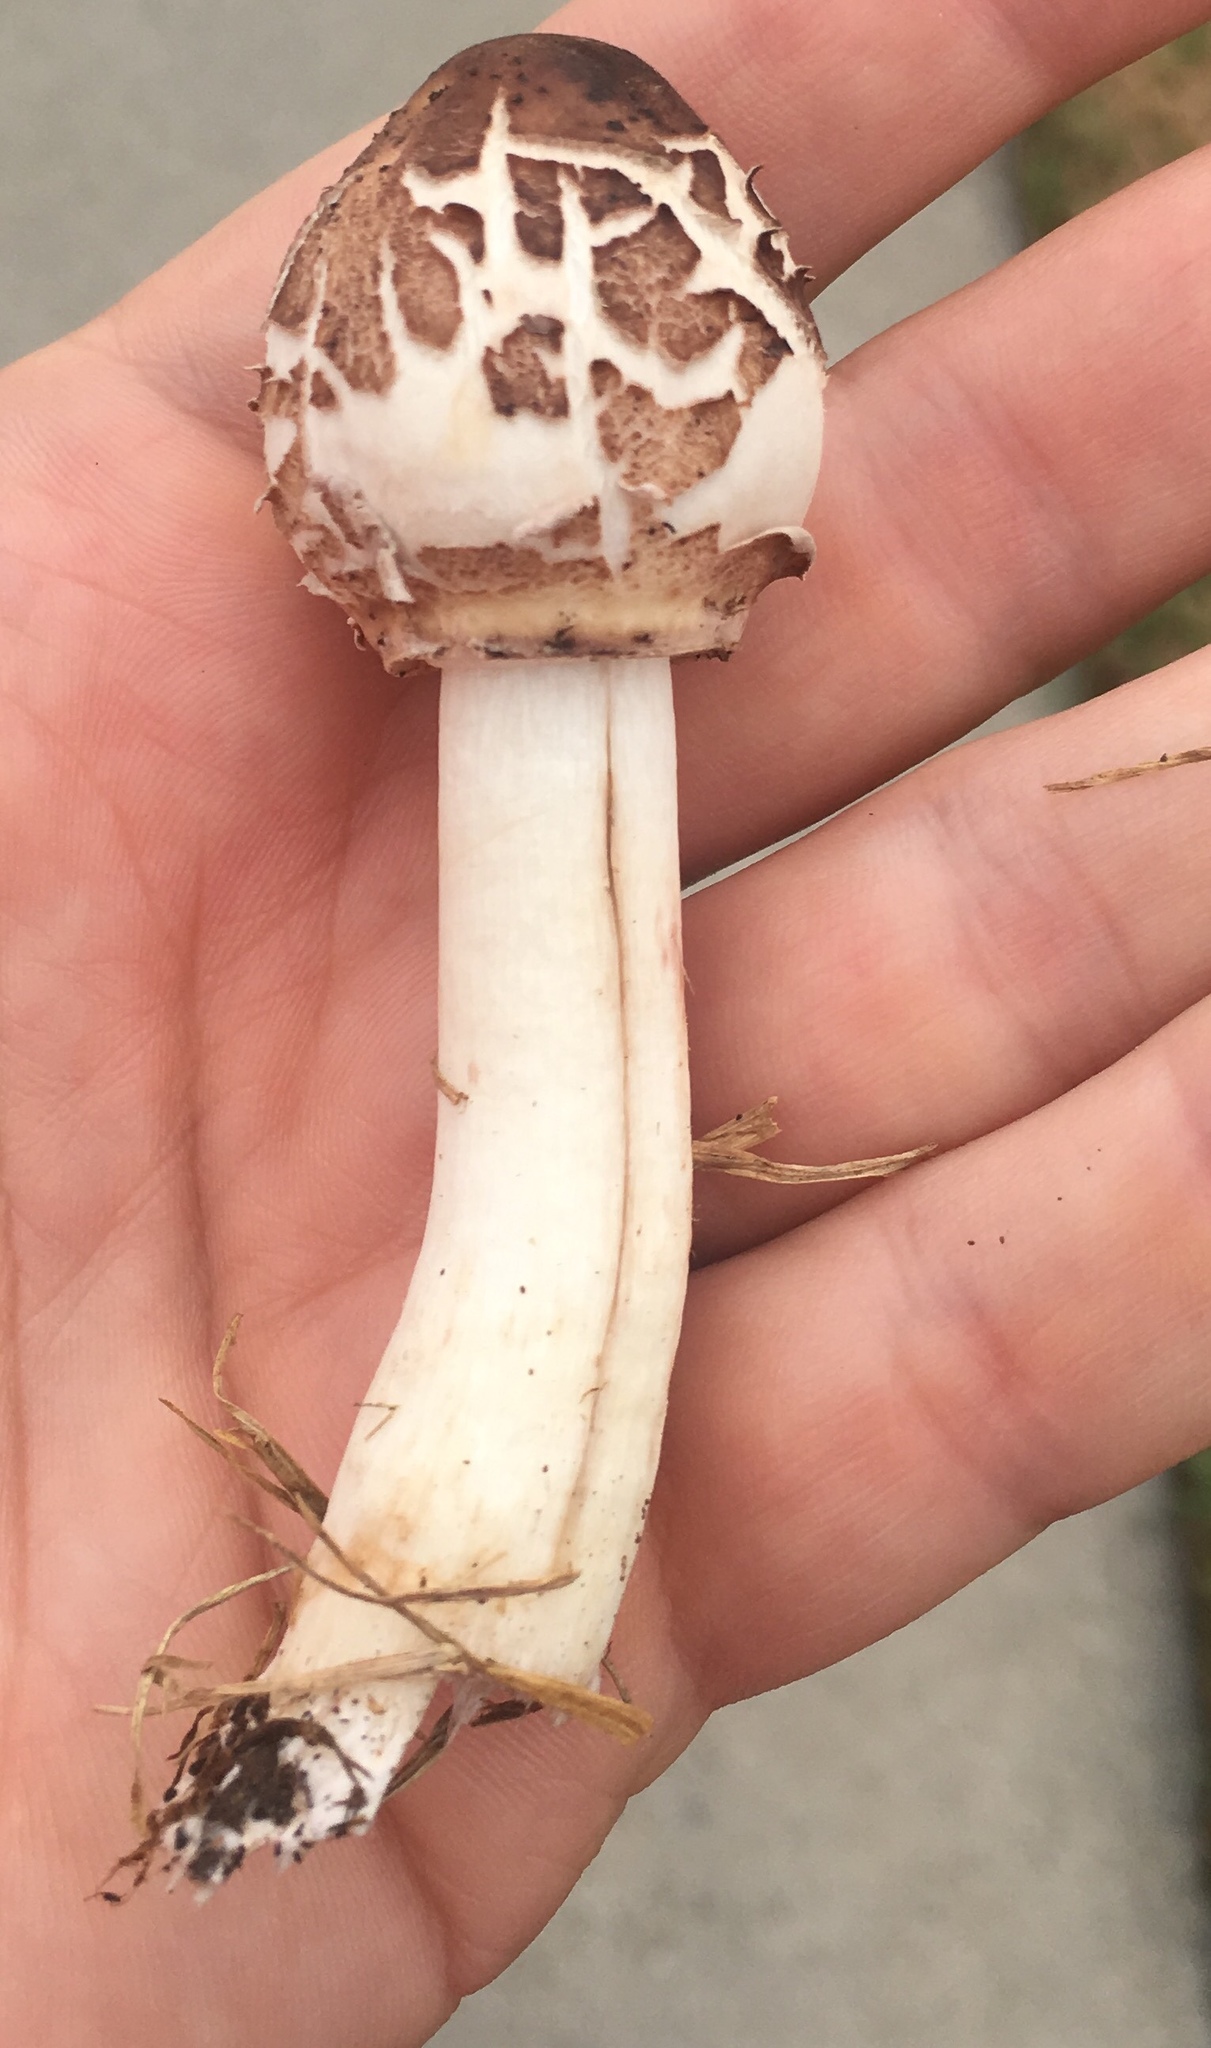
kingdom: Fungi
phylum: Basidiomycota
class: Agaricomycetes
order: Agaricales
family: Agaricaceae
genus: Chlorophyllum
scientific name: Chlorophyllum molybdites
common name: False parasol
